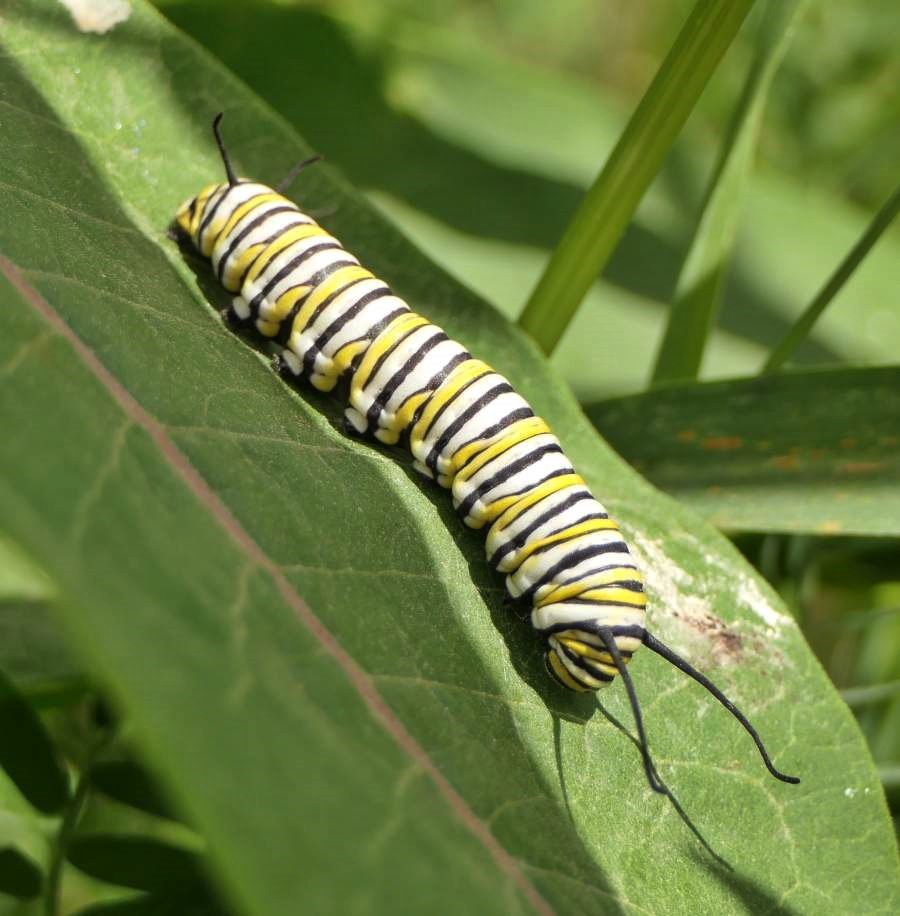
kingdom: Animalia
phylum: Arthropoda
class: Insecta
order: Lepidoptera
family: Nymphalidae
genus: Danaus
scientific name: Danaus plexippus
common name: Monarch
